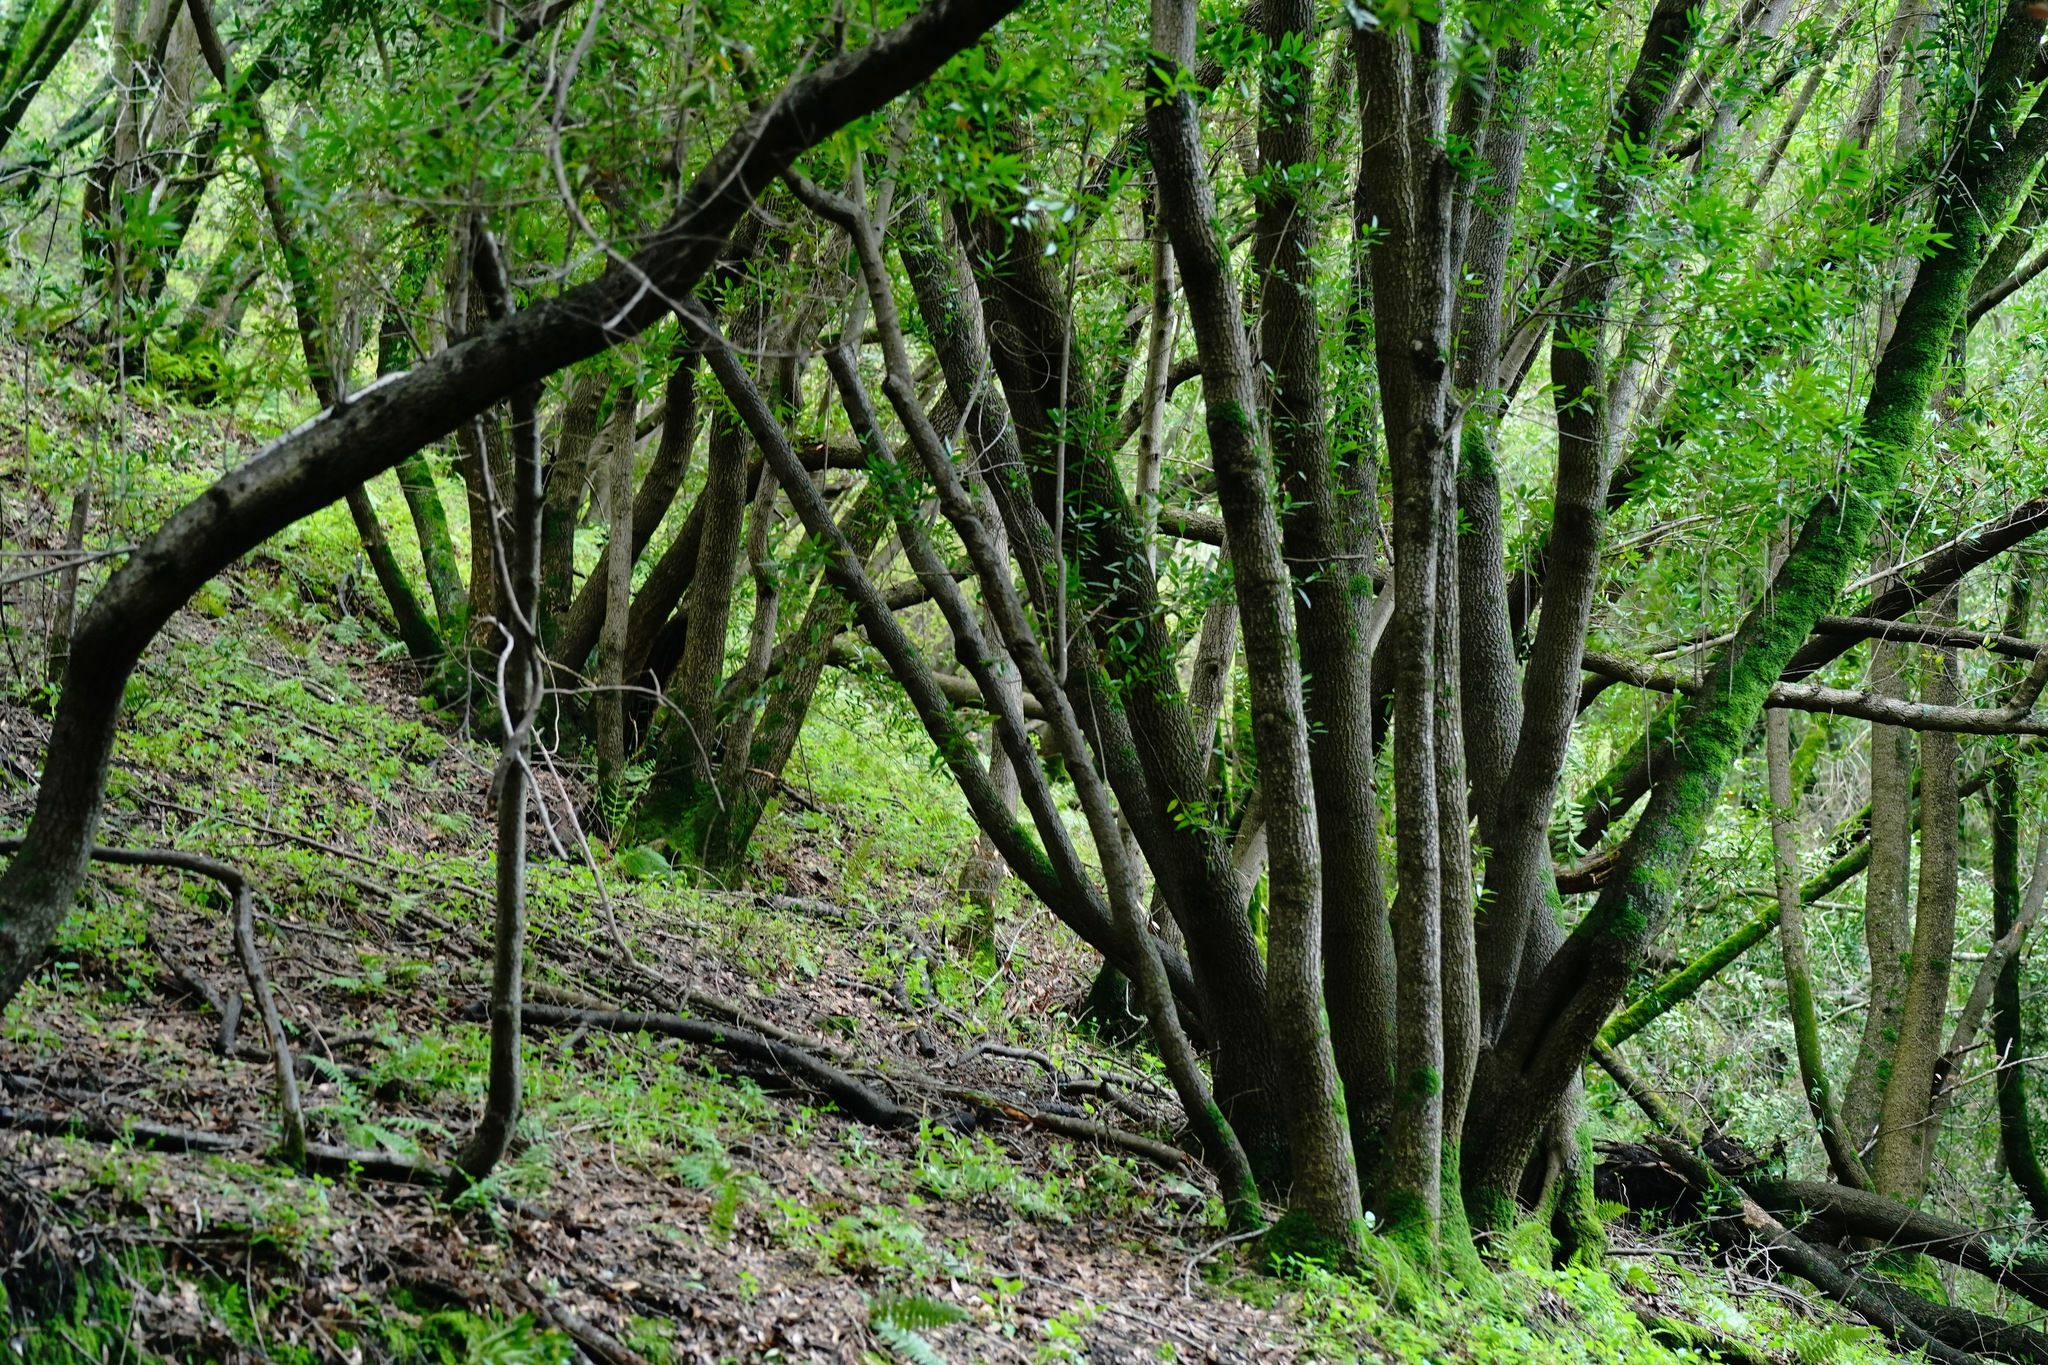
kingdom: Plantae
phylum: Tracheophyta
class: Magnoliopsida
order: Laurales
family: Lauraceae
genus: Umbellularia
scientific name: Umbellularia californica
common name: California bay
